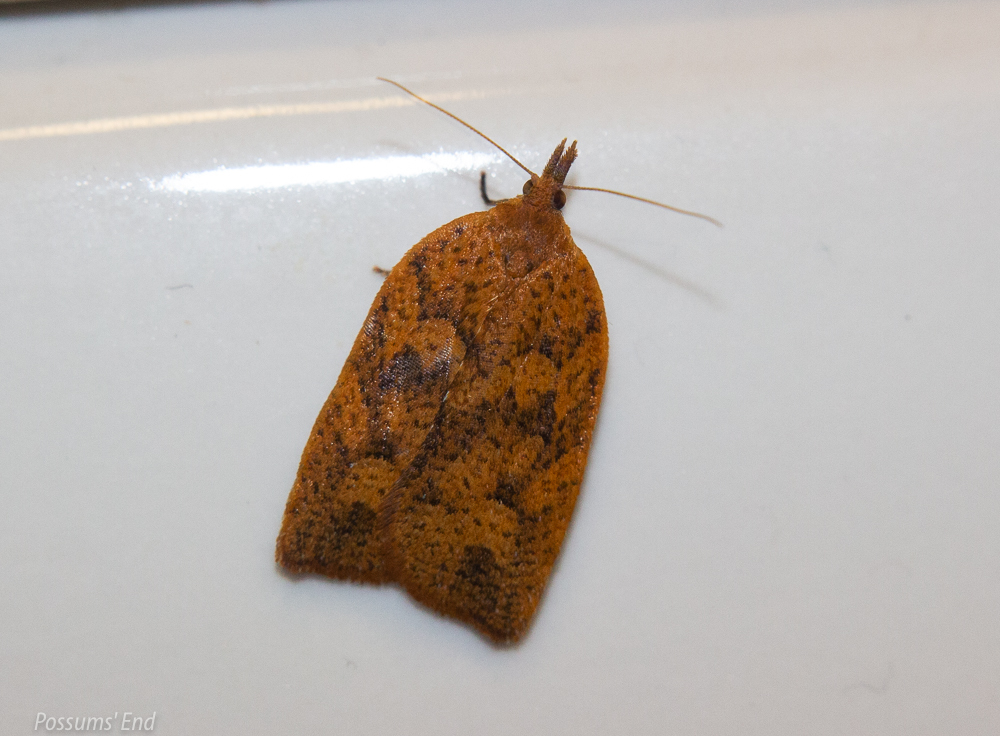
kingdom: Animalia
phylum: Arthropoda
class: Insecta
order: Lepidoptera
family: Tortricidae
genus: Planotortrix
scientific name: Planotortrix excessana
